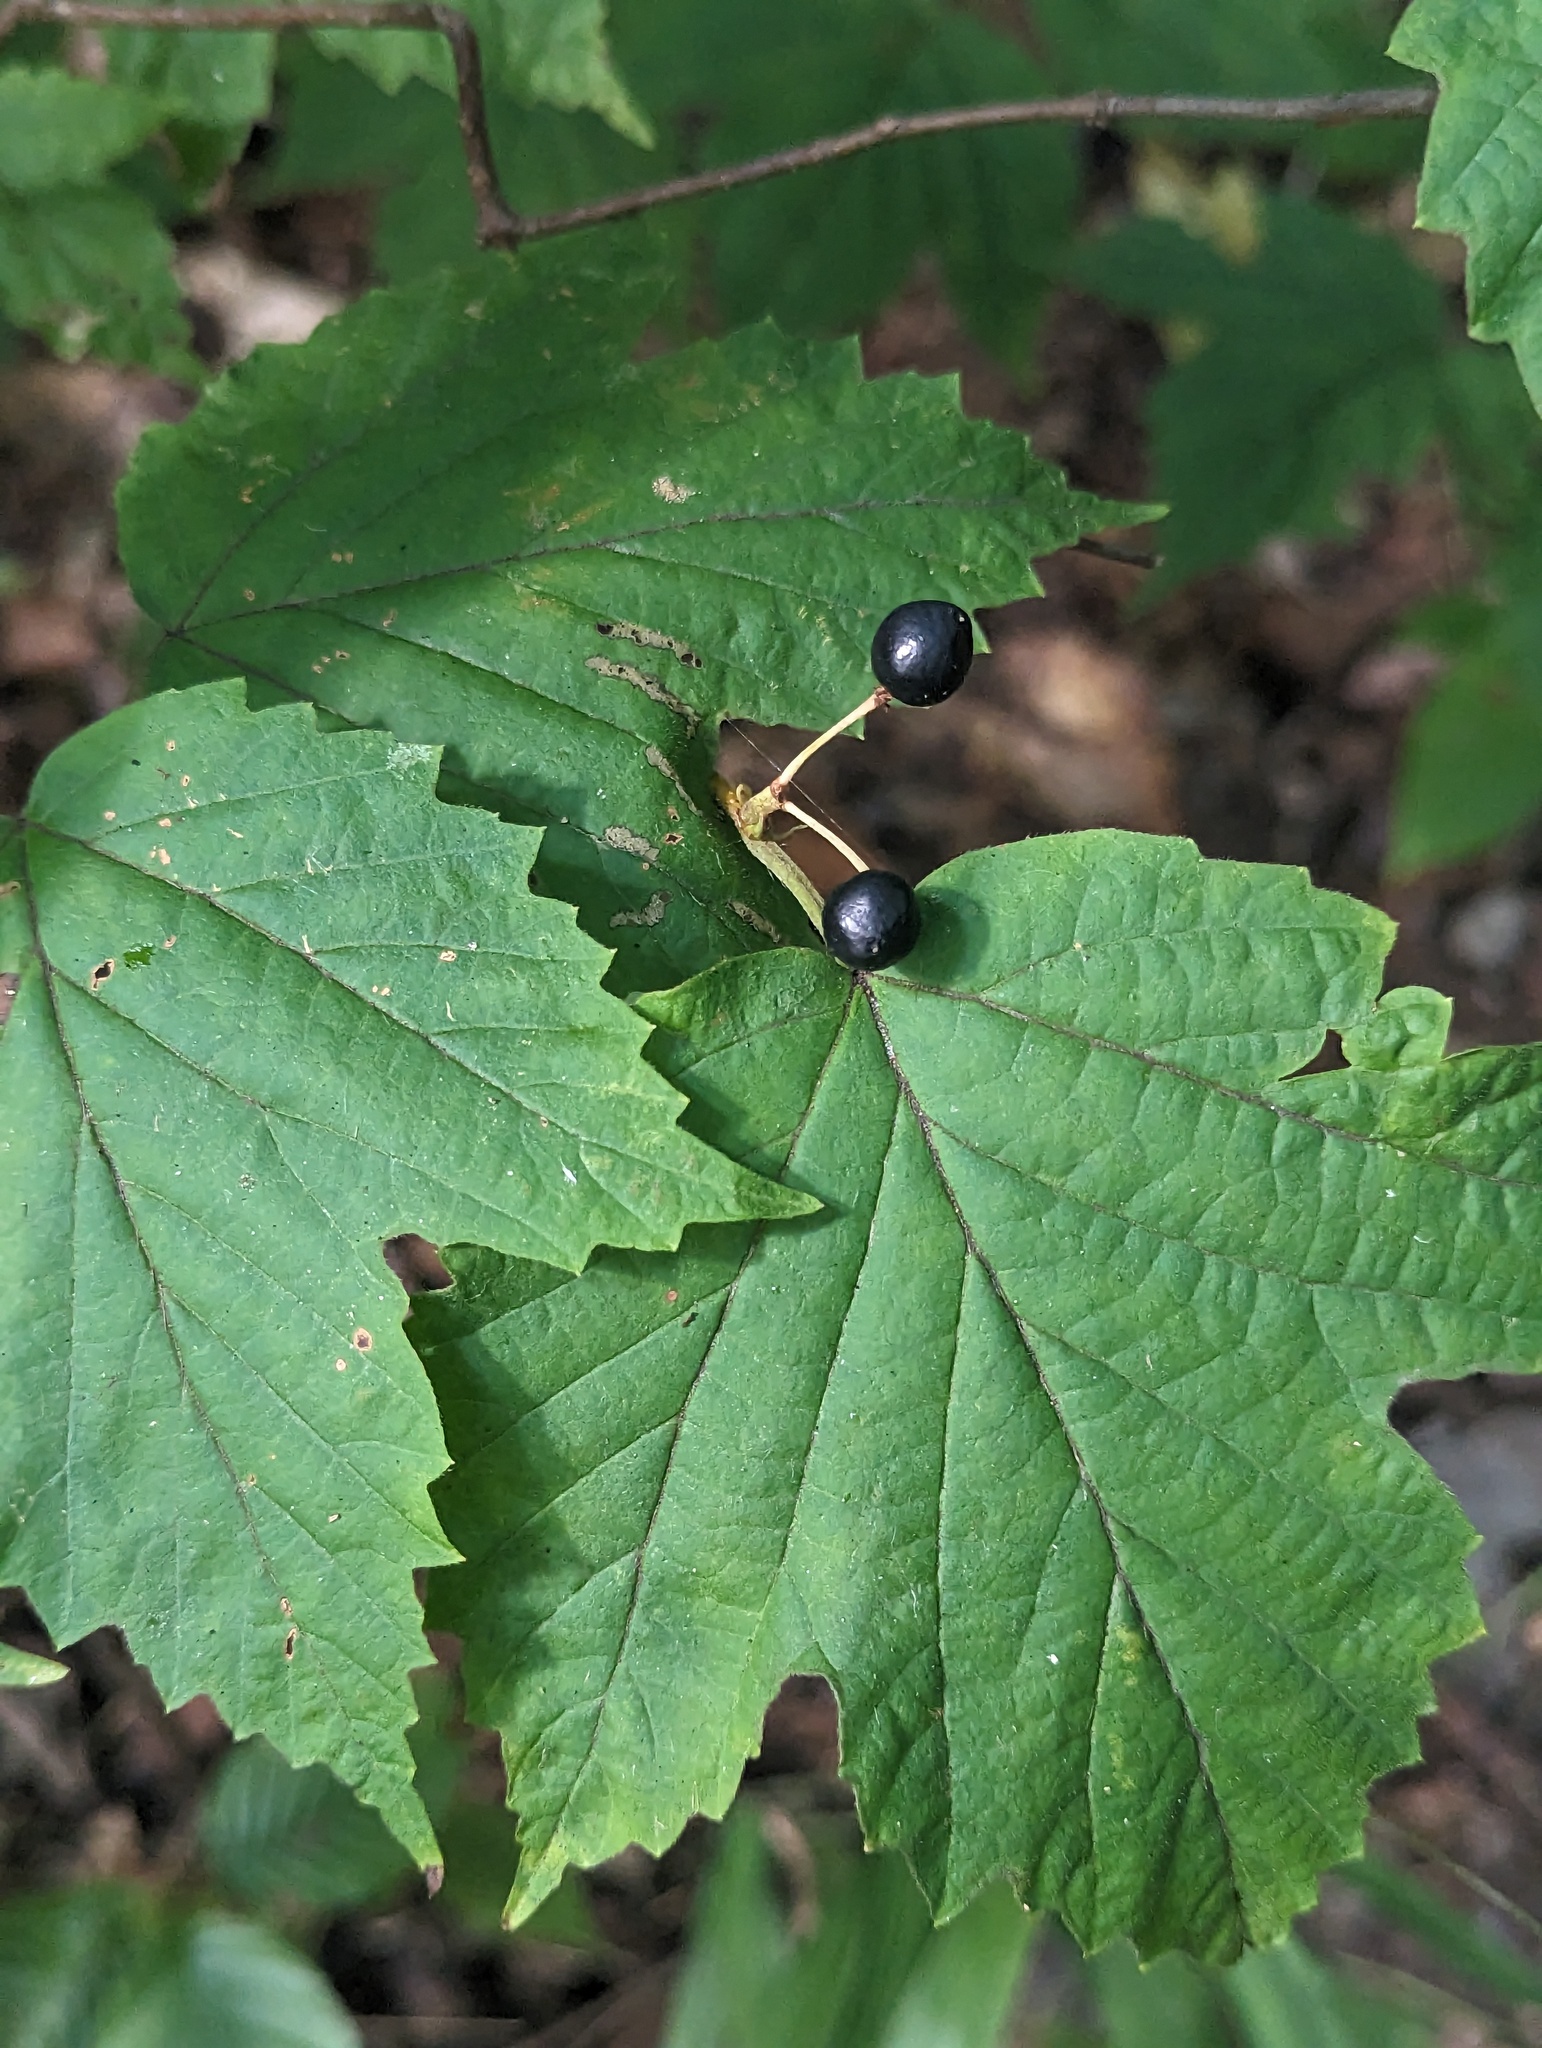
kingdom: Plantae
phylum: Tracheophyta
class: Magnoliopsida
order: Dipsacales
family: Viburnaceae
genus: Viburnum
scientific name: Viburnum acerifolium
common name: Dockmackie
